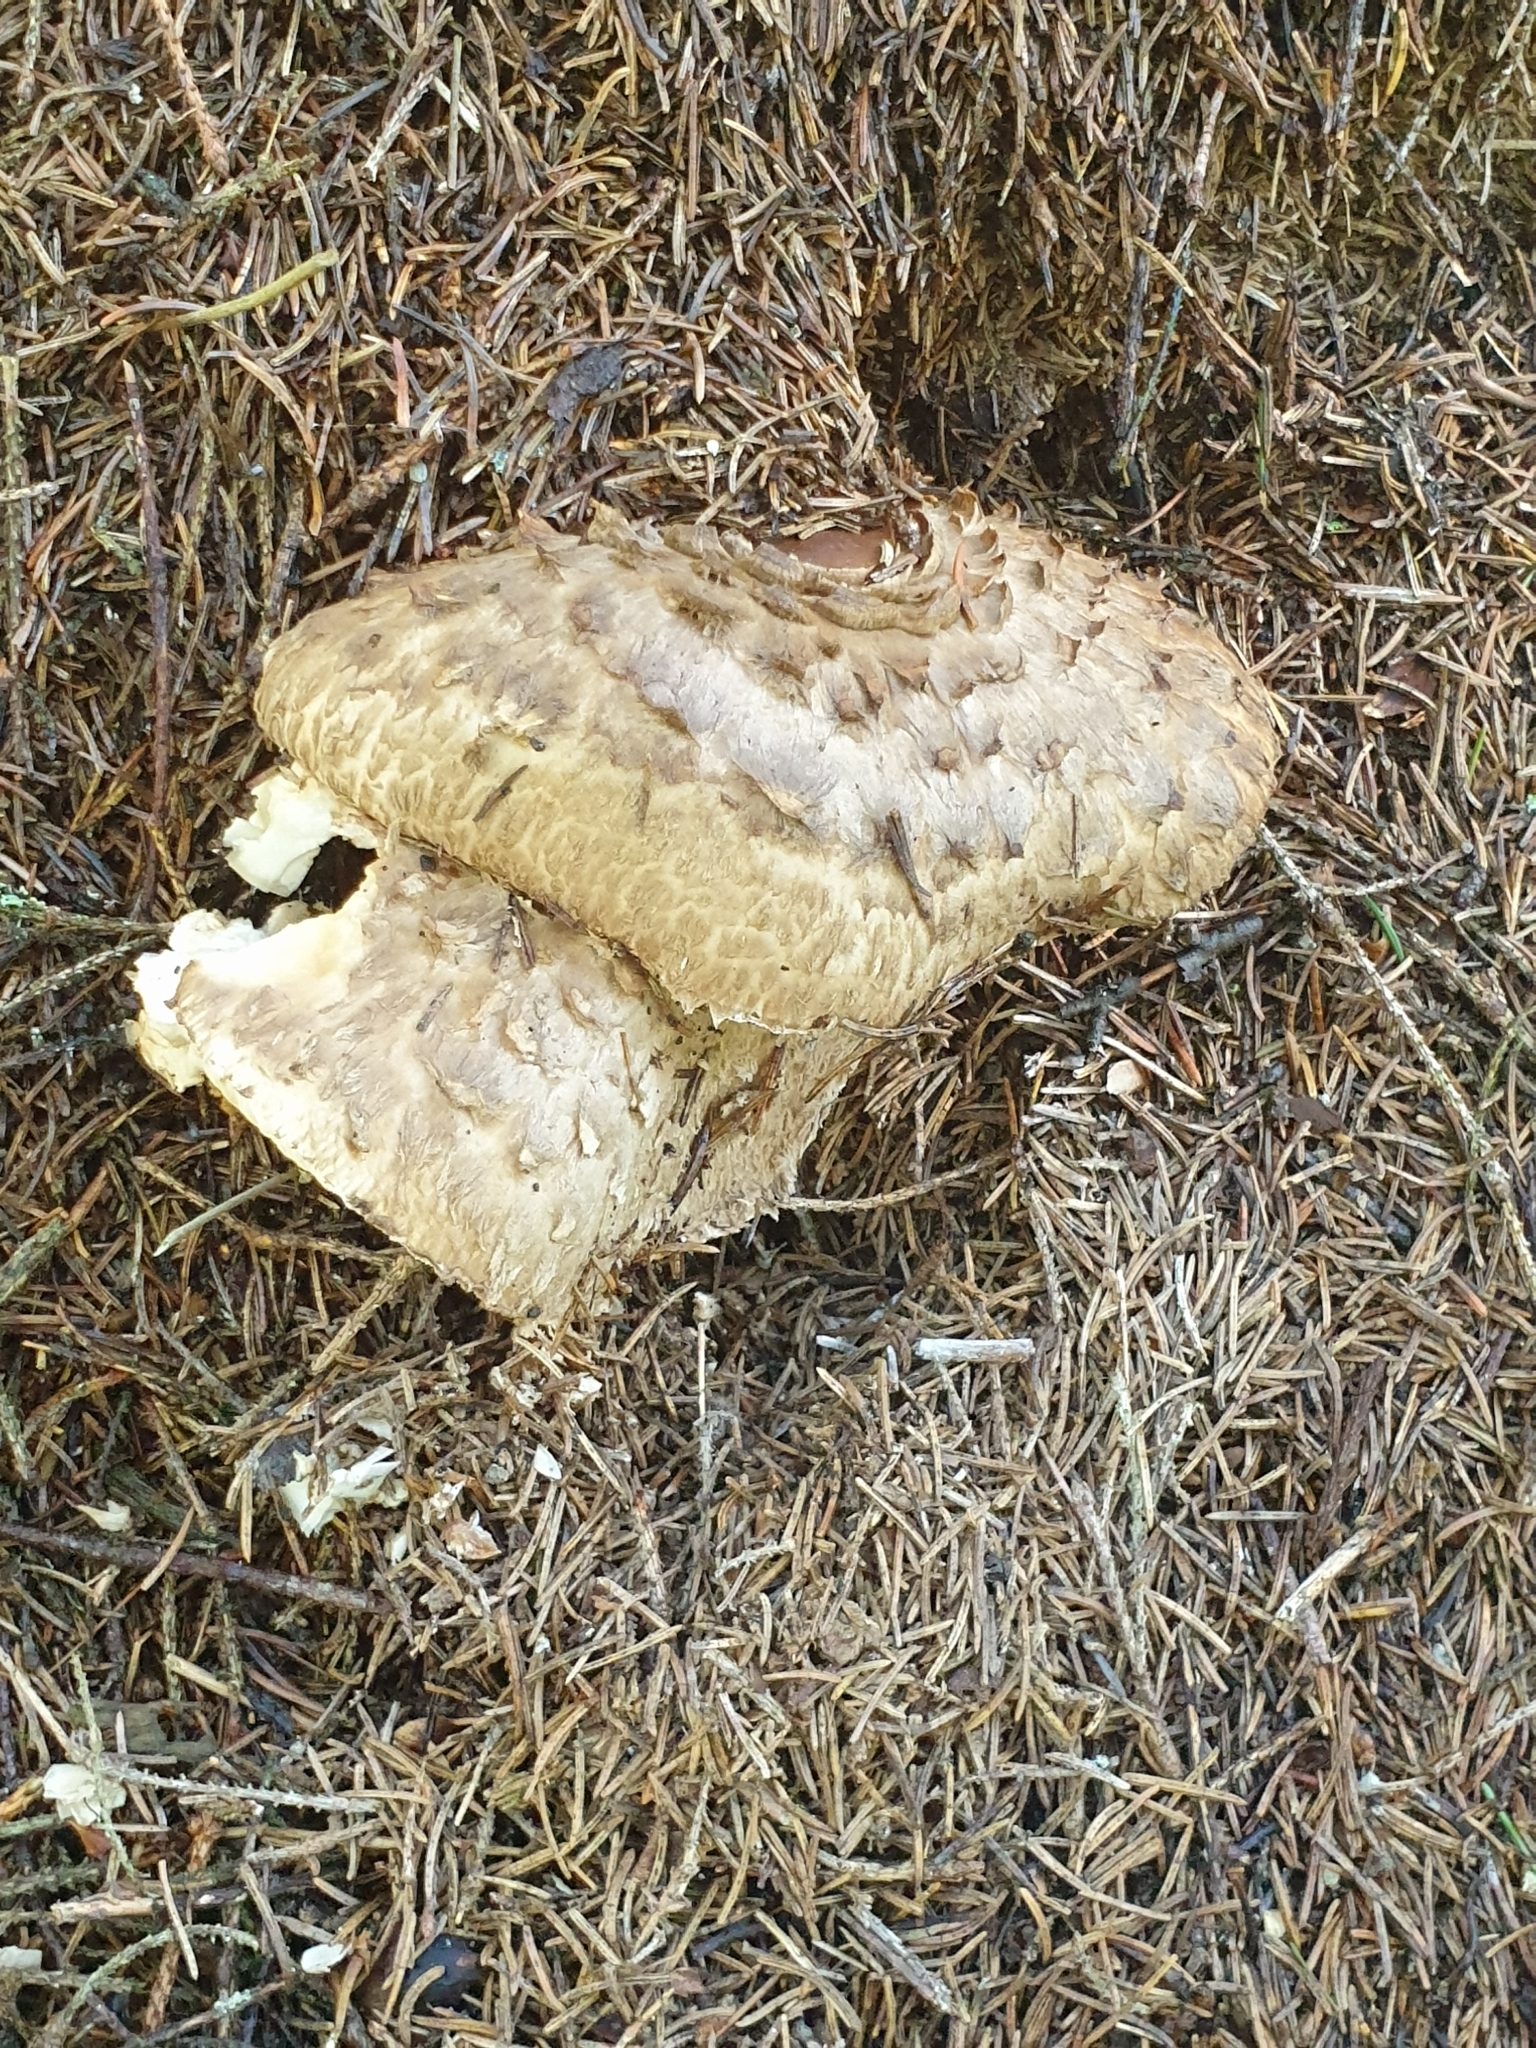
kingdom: Fungi
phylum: Basidiomycota
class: Agaricomycetes
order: Agaricales
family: Agaricaceae
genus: Chlorophyllum
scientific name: Chlorophyllum olivieri
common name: Conifer parasol
